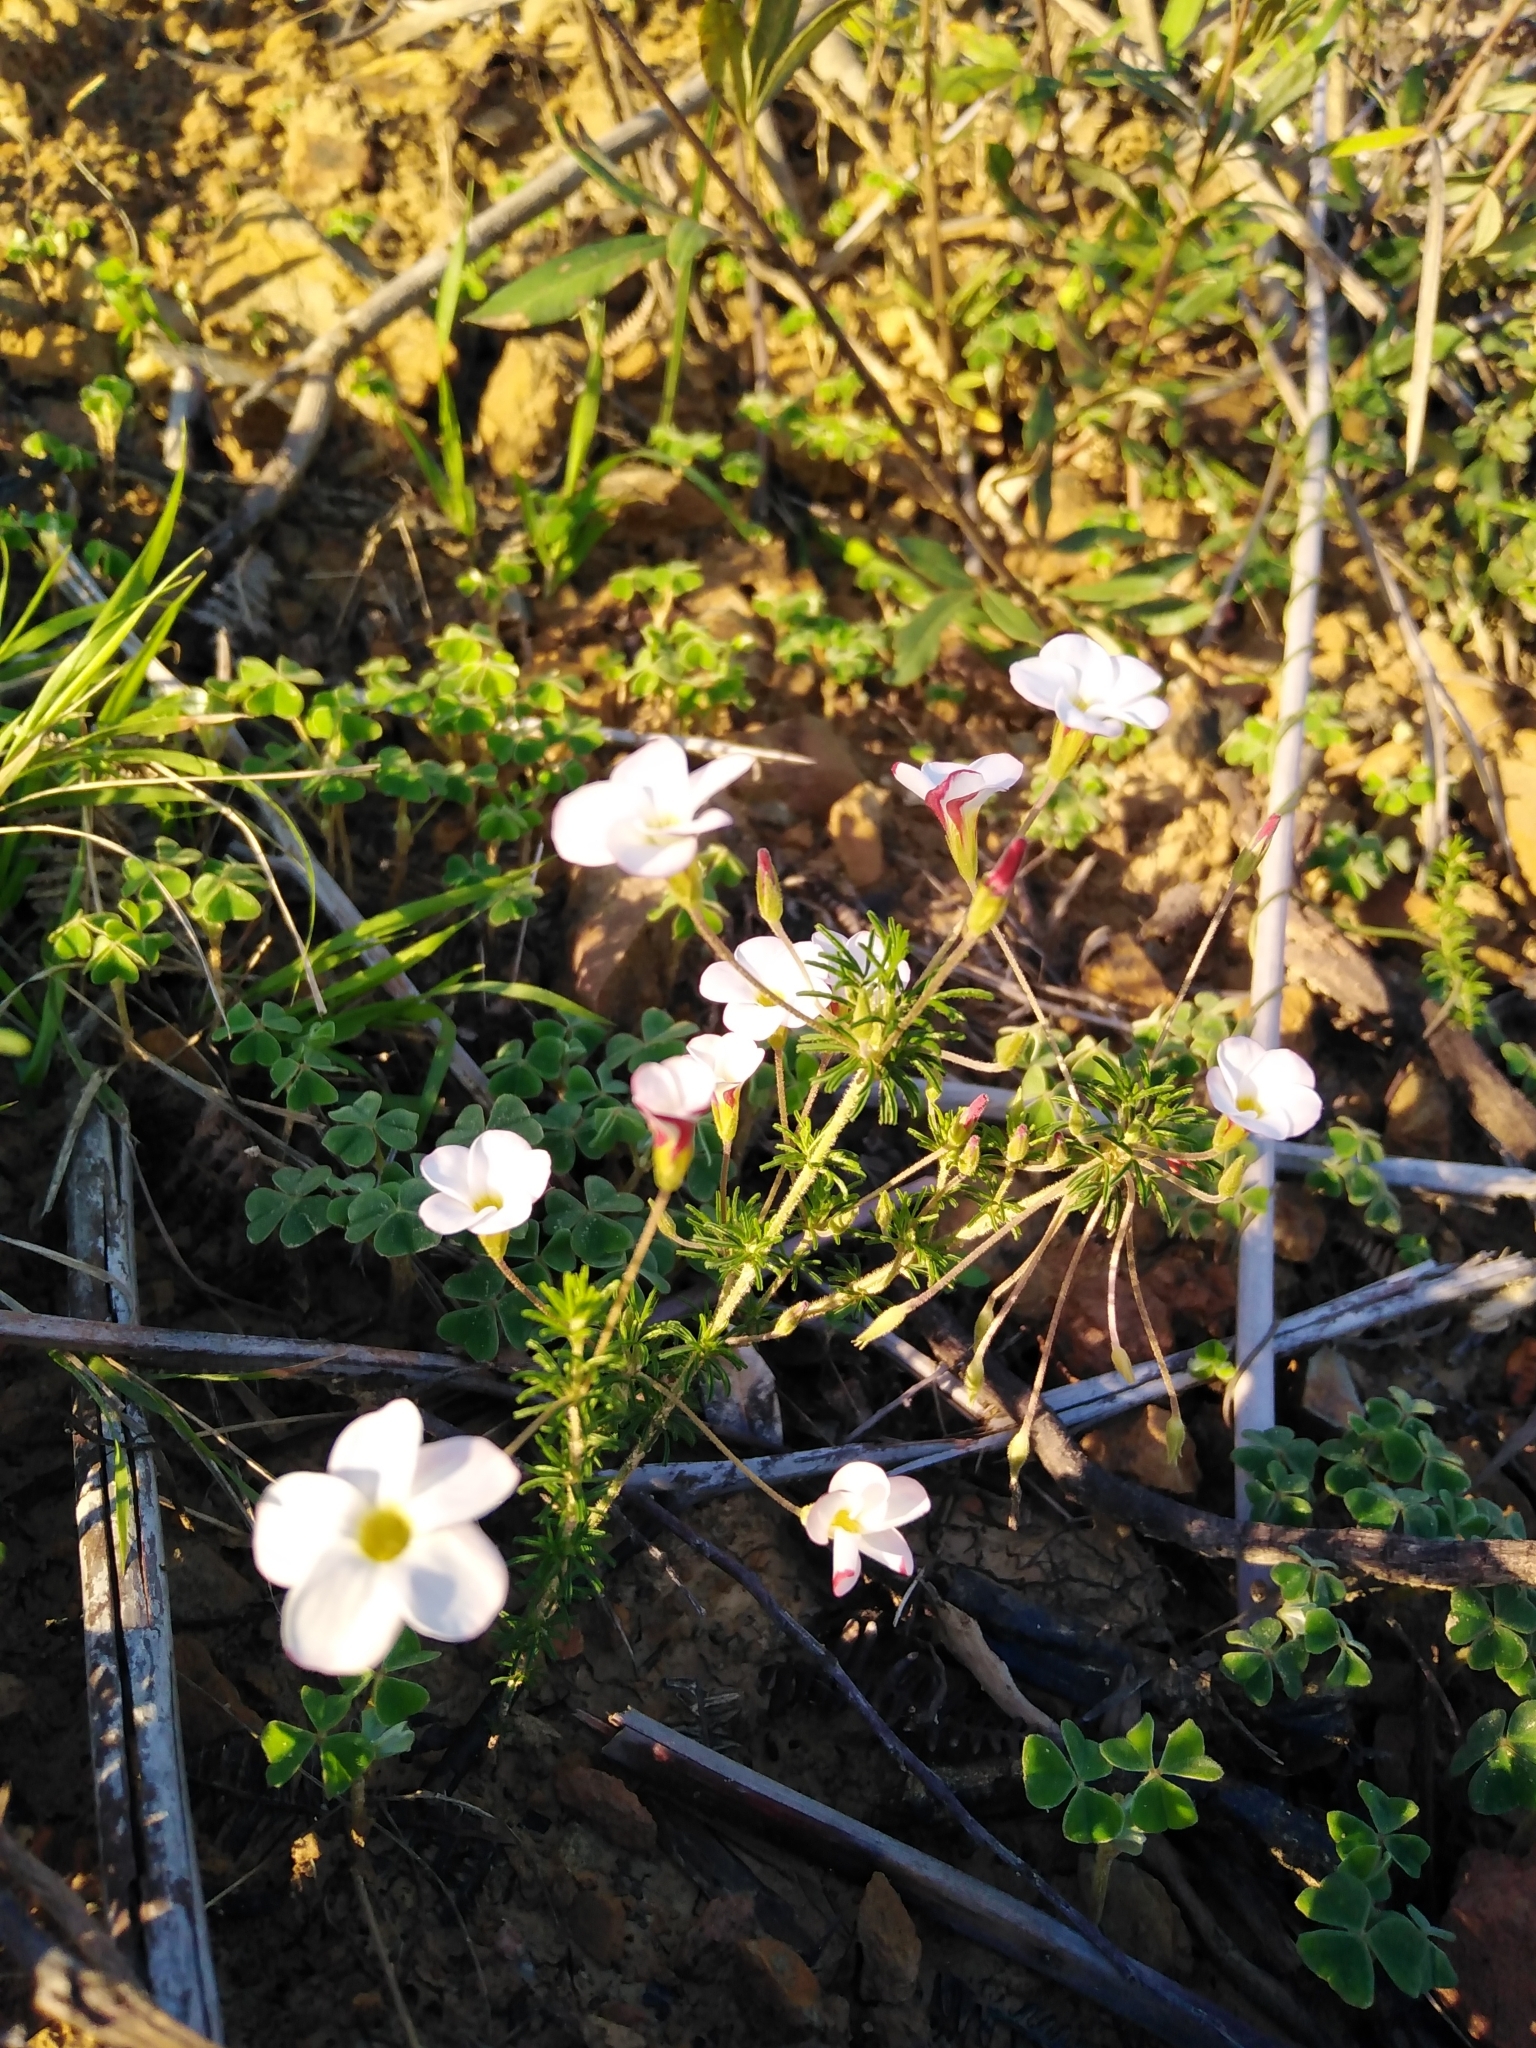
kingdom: Plantae
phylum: Tracheophyta
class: Magnoliopsida
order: Oxalidales
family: Oxalidaceae
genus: Oxalis
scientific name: Oxalis tenuifolia
